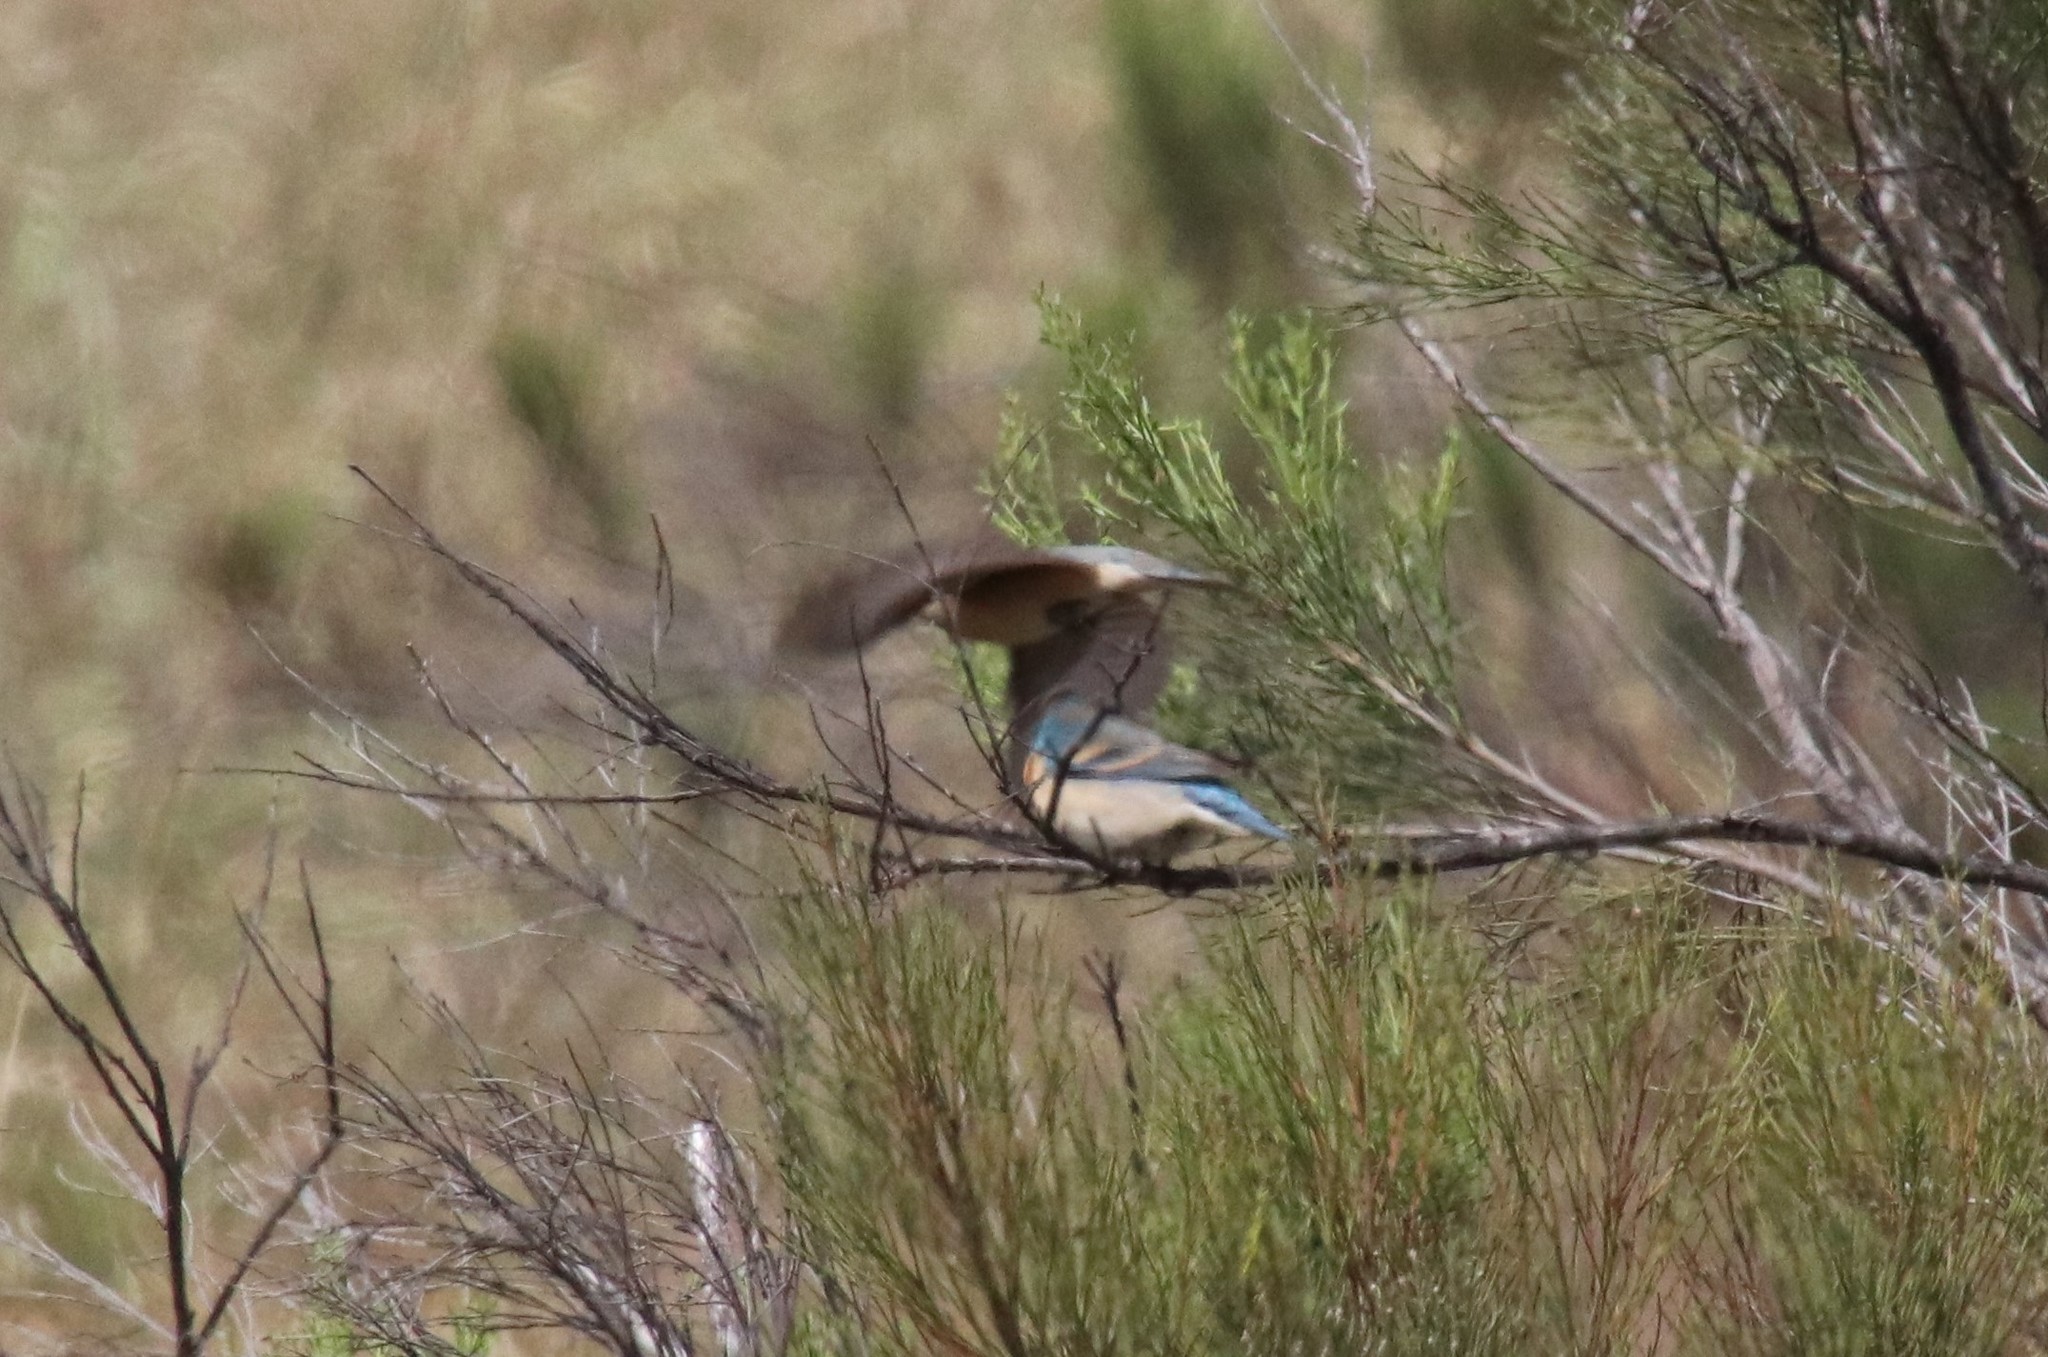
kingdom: Animalia
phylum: Chordata
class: Aves
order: Passeriformes
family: Cardinalidae
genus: Passerina
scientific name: Passerina amoena
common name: Lazuli bunting
